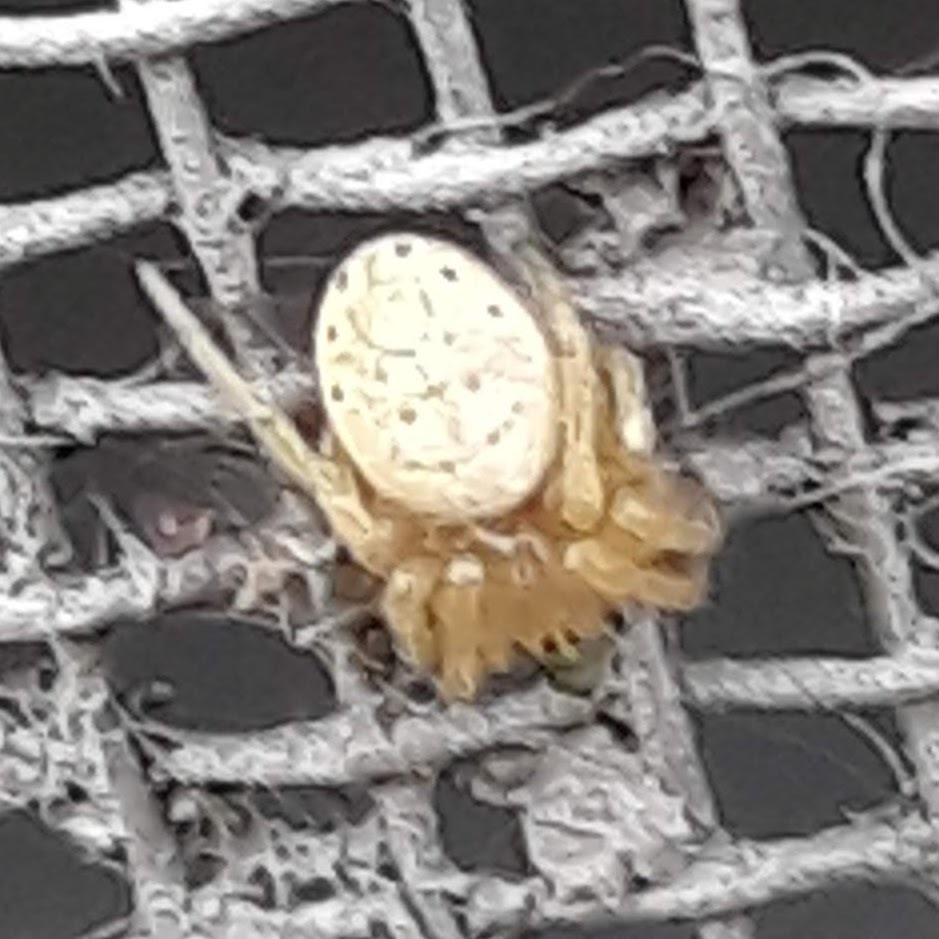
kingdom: Animalia
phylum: Arthropoda
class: Arachnida
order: Araneae
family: Araneidae
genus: Araniella
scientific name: Araniella displicata
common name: Sixspotted orb weaver
